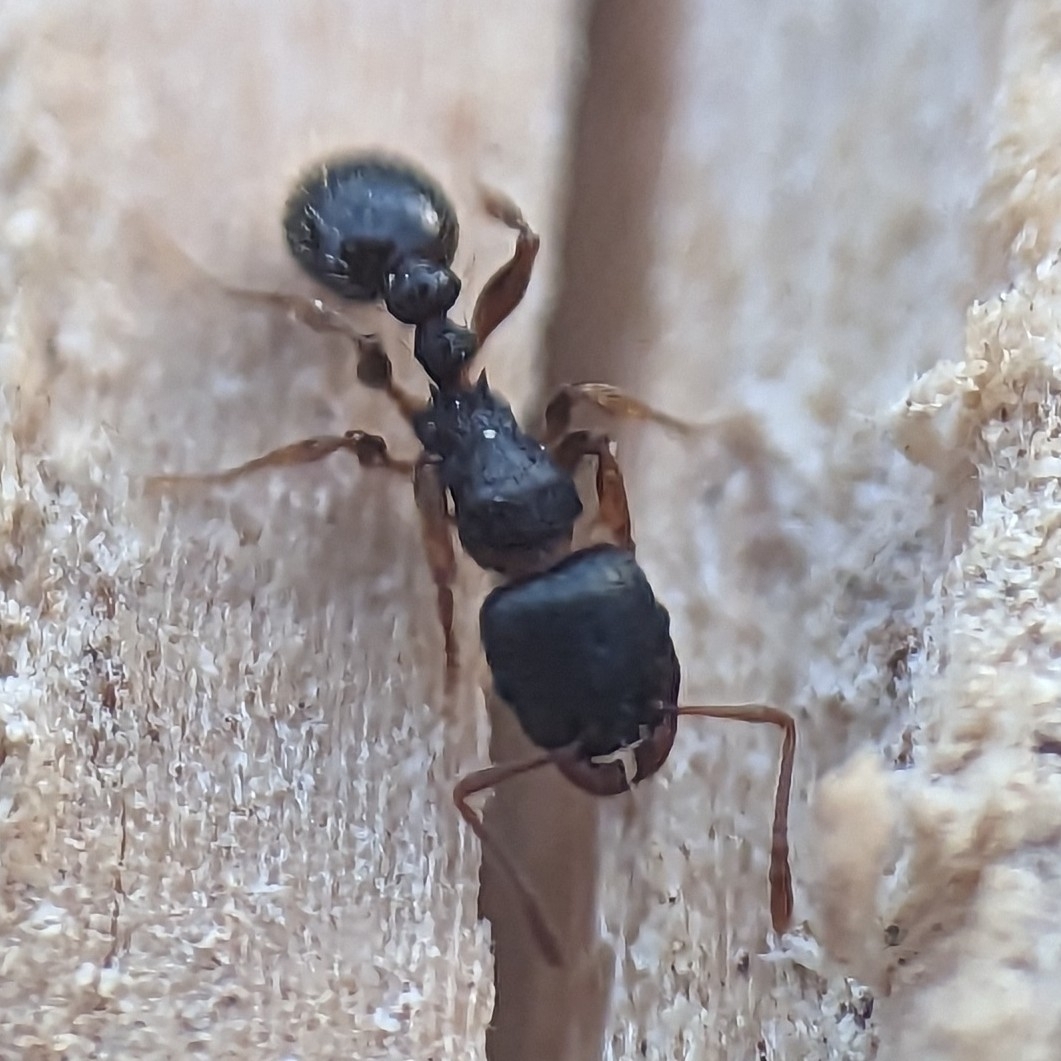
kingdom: Animalia
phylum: Arthropoda
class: Insecta
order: Hymenoptera
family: Formicidae
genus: Tetramorium
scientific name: Tetramorium immigrans
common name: Pavement ant
